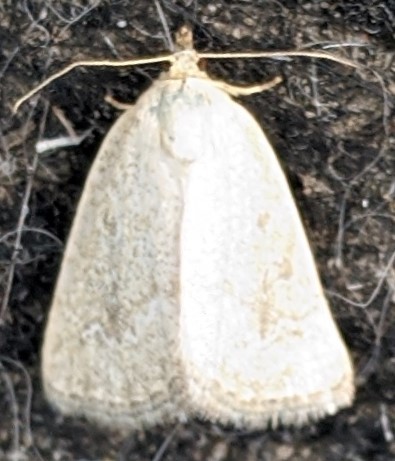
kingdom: Animalia
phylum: Arthropoda
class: Insecta
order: Lepidoptera
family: Noctuidae
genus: Protodeltote
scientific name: Protodeltote albidula
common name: Pale glyph
